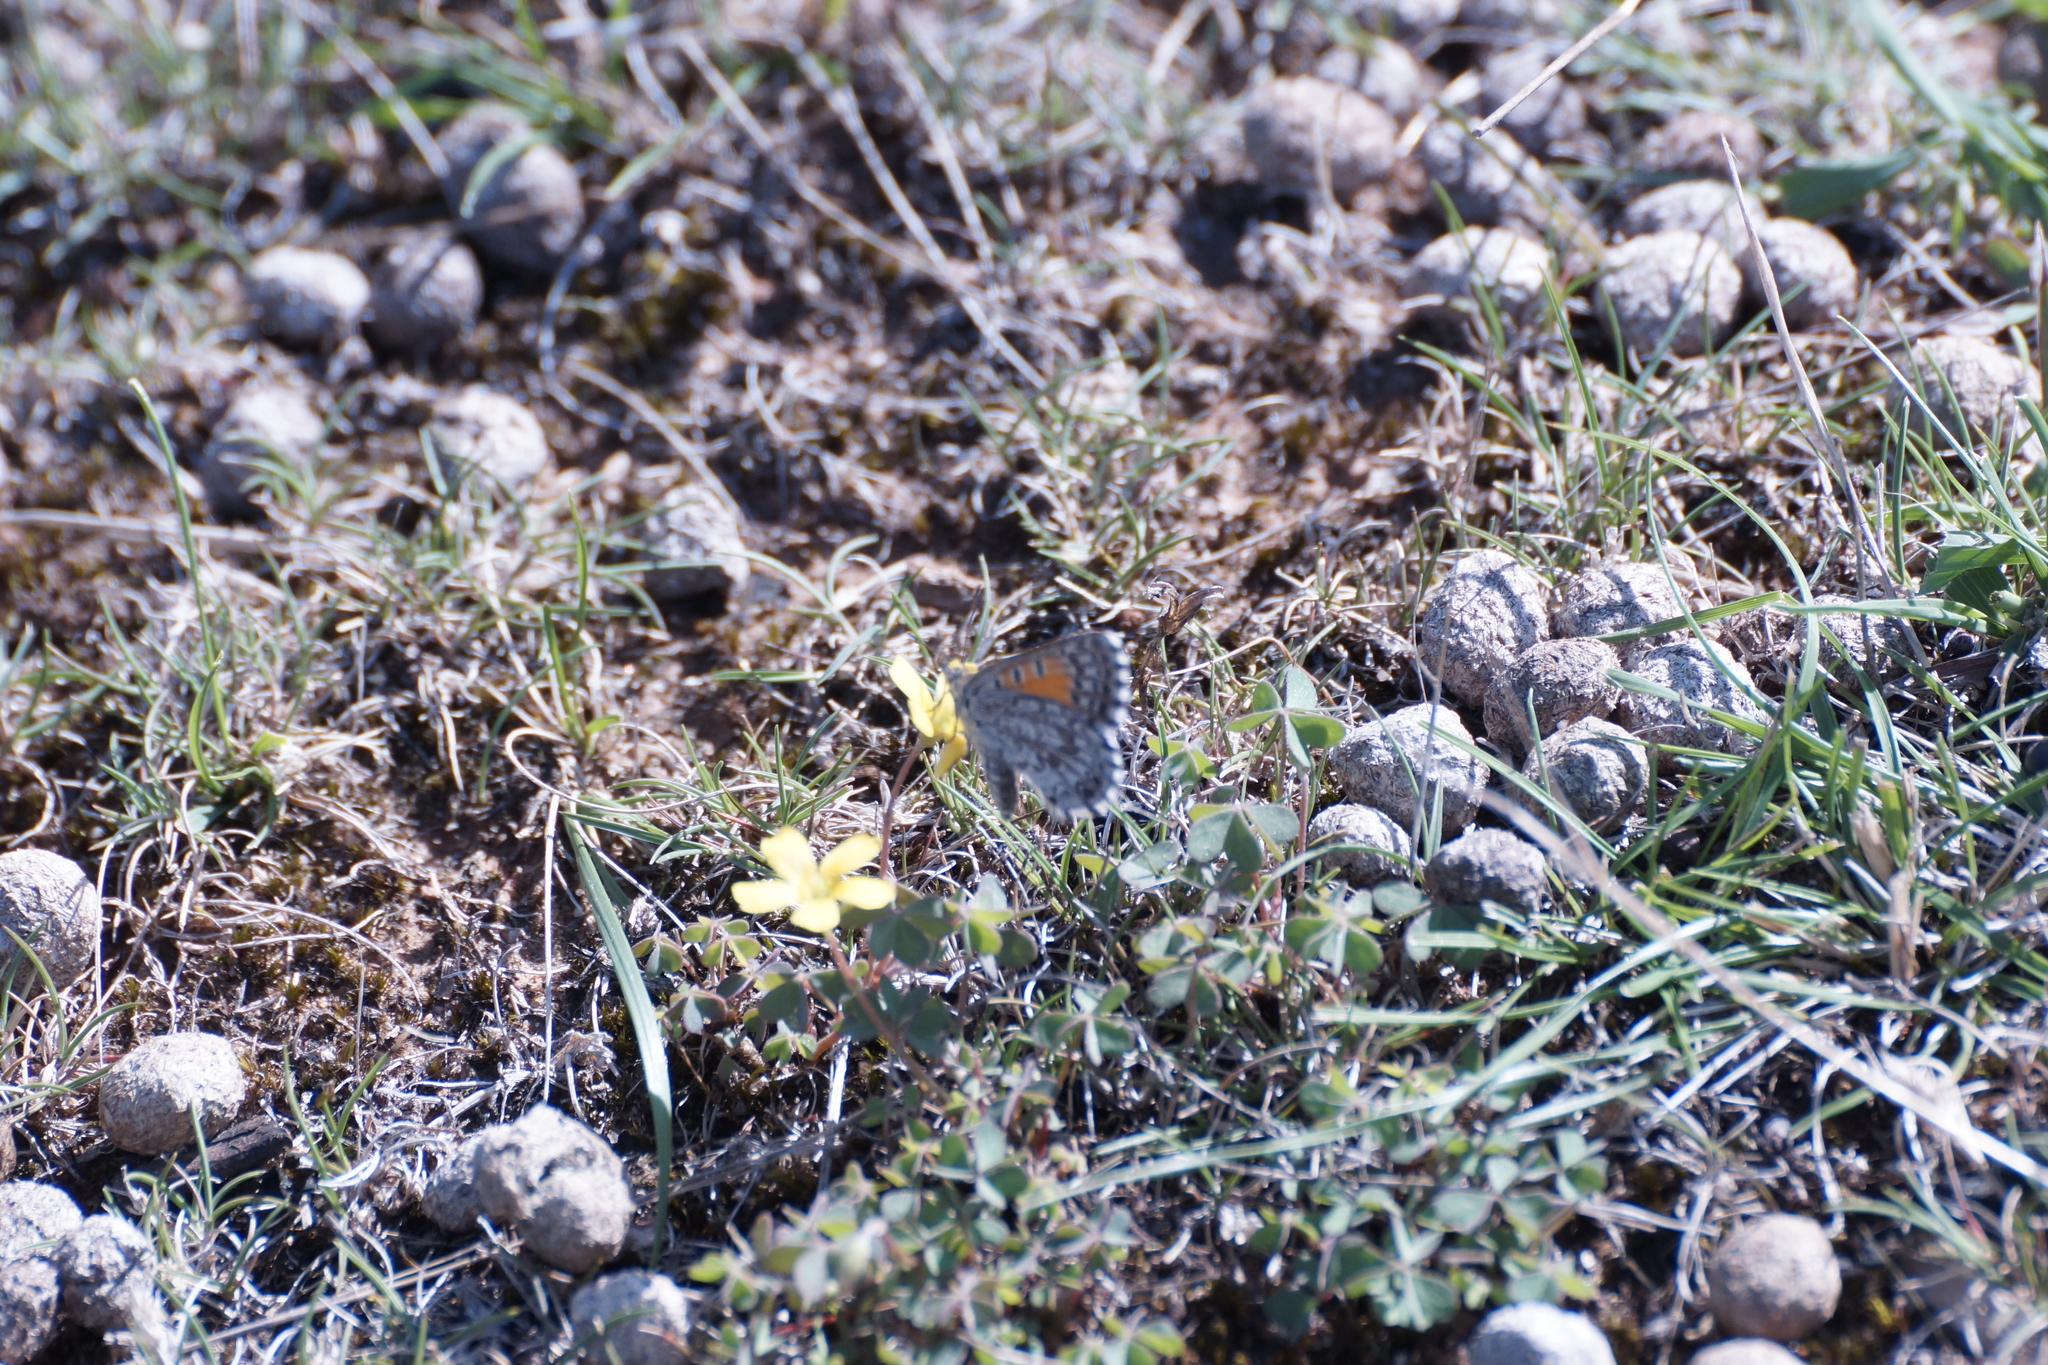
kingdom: Animalia
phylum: Arthropoda
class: Insecta
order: Lepidoptera
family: Lycaenidae
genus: Lucia
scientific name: Lucia limbaria
